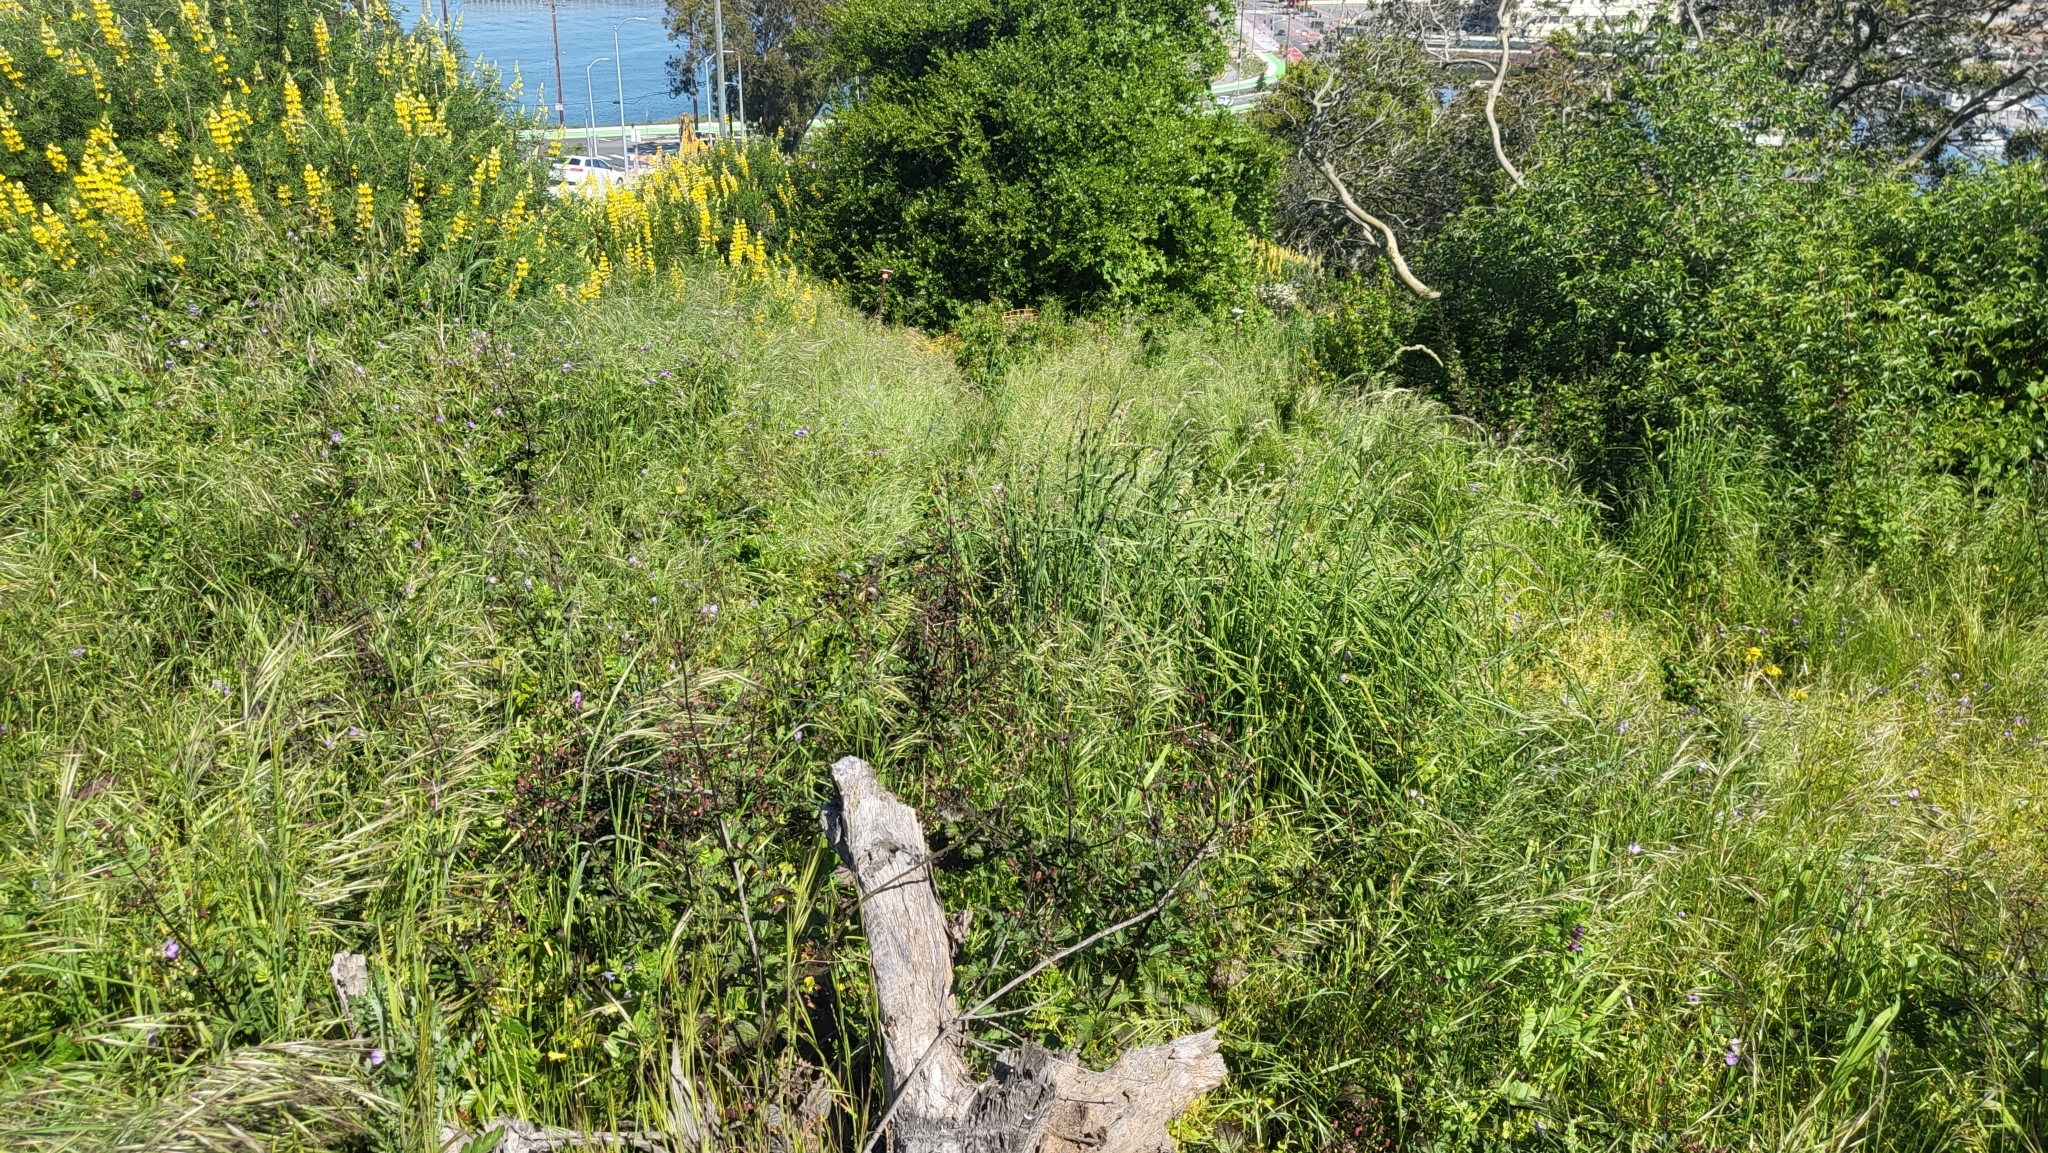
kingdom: Plantae
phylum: Tracheophyta
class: Magnoliopsida
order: Boraginales
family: Hydrophyllaceae
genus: Pholistoma
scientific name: Pholistoma auritum
